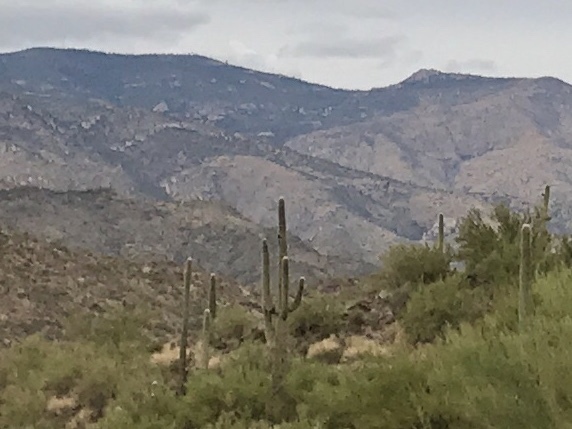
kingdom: Plantae
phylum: Tracheophyta
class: Magnoliopsida
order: Caryophyllales
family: Cactaceae
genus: Carnegiea
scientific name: Carnegiea gigantea
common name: Saguaro
